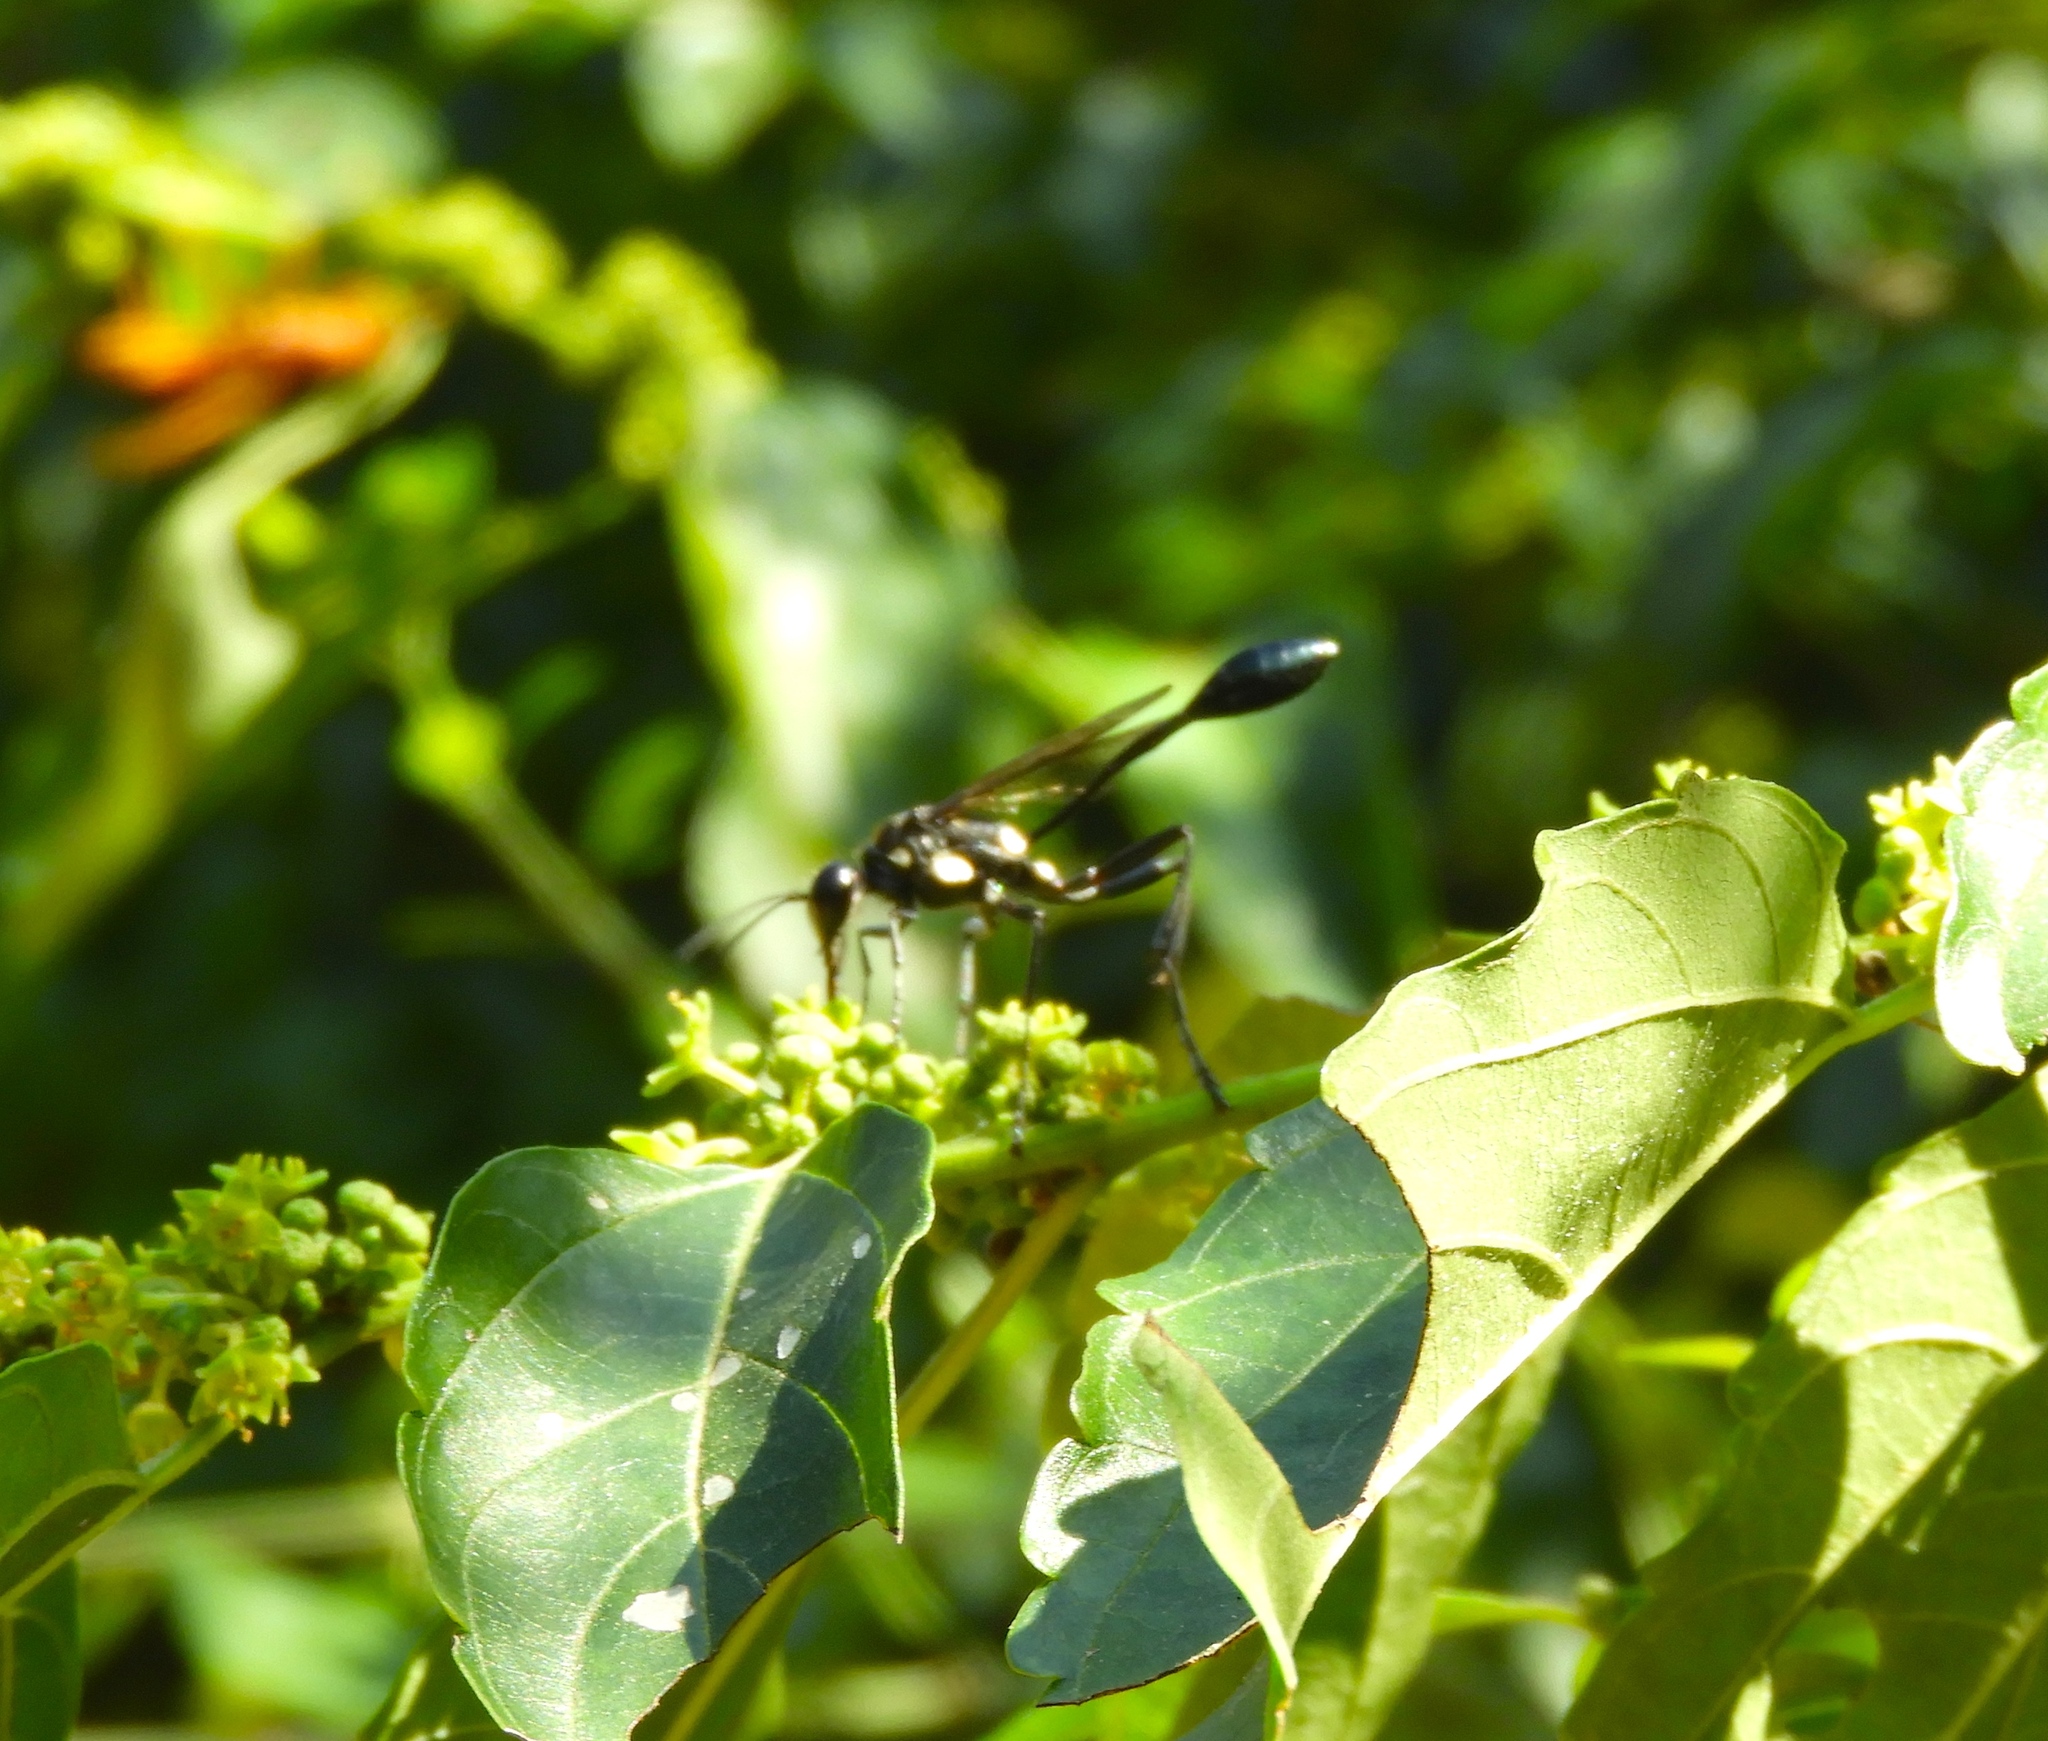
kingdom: Animalia
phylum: Arthropoda
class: Insecta
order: Hymenoptera
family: Sphecidae
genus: Eremnophila
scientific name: Eremnophila
